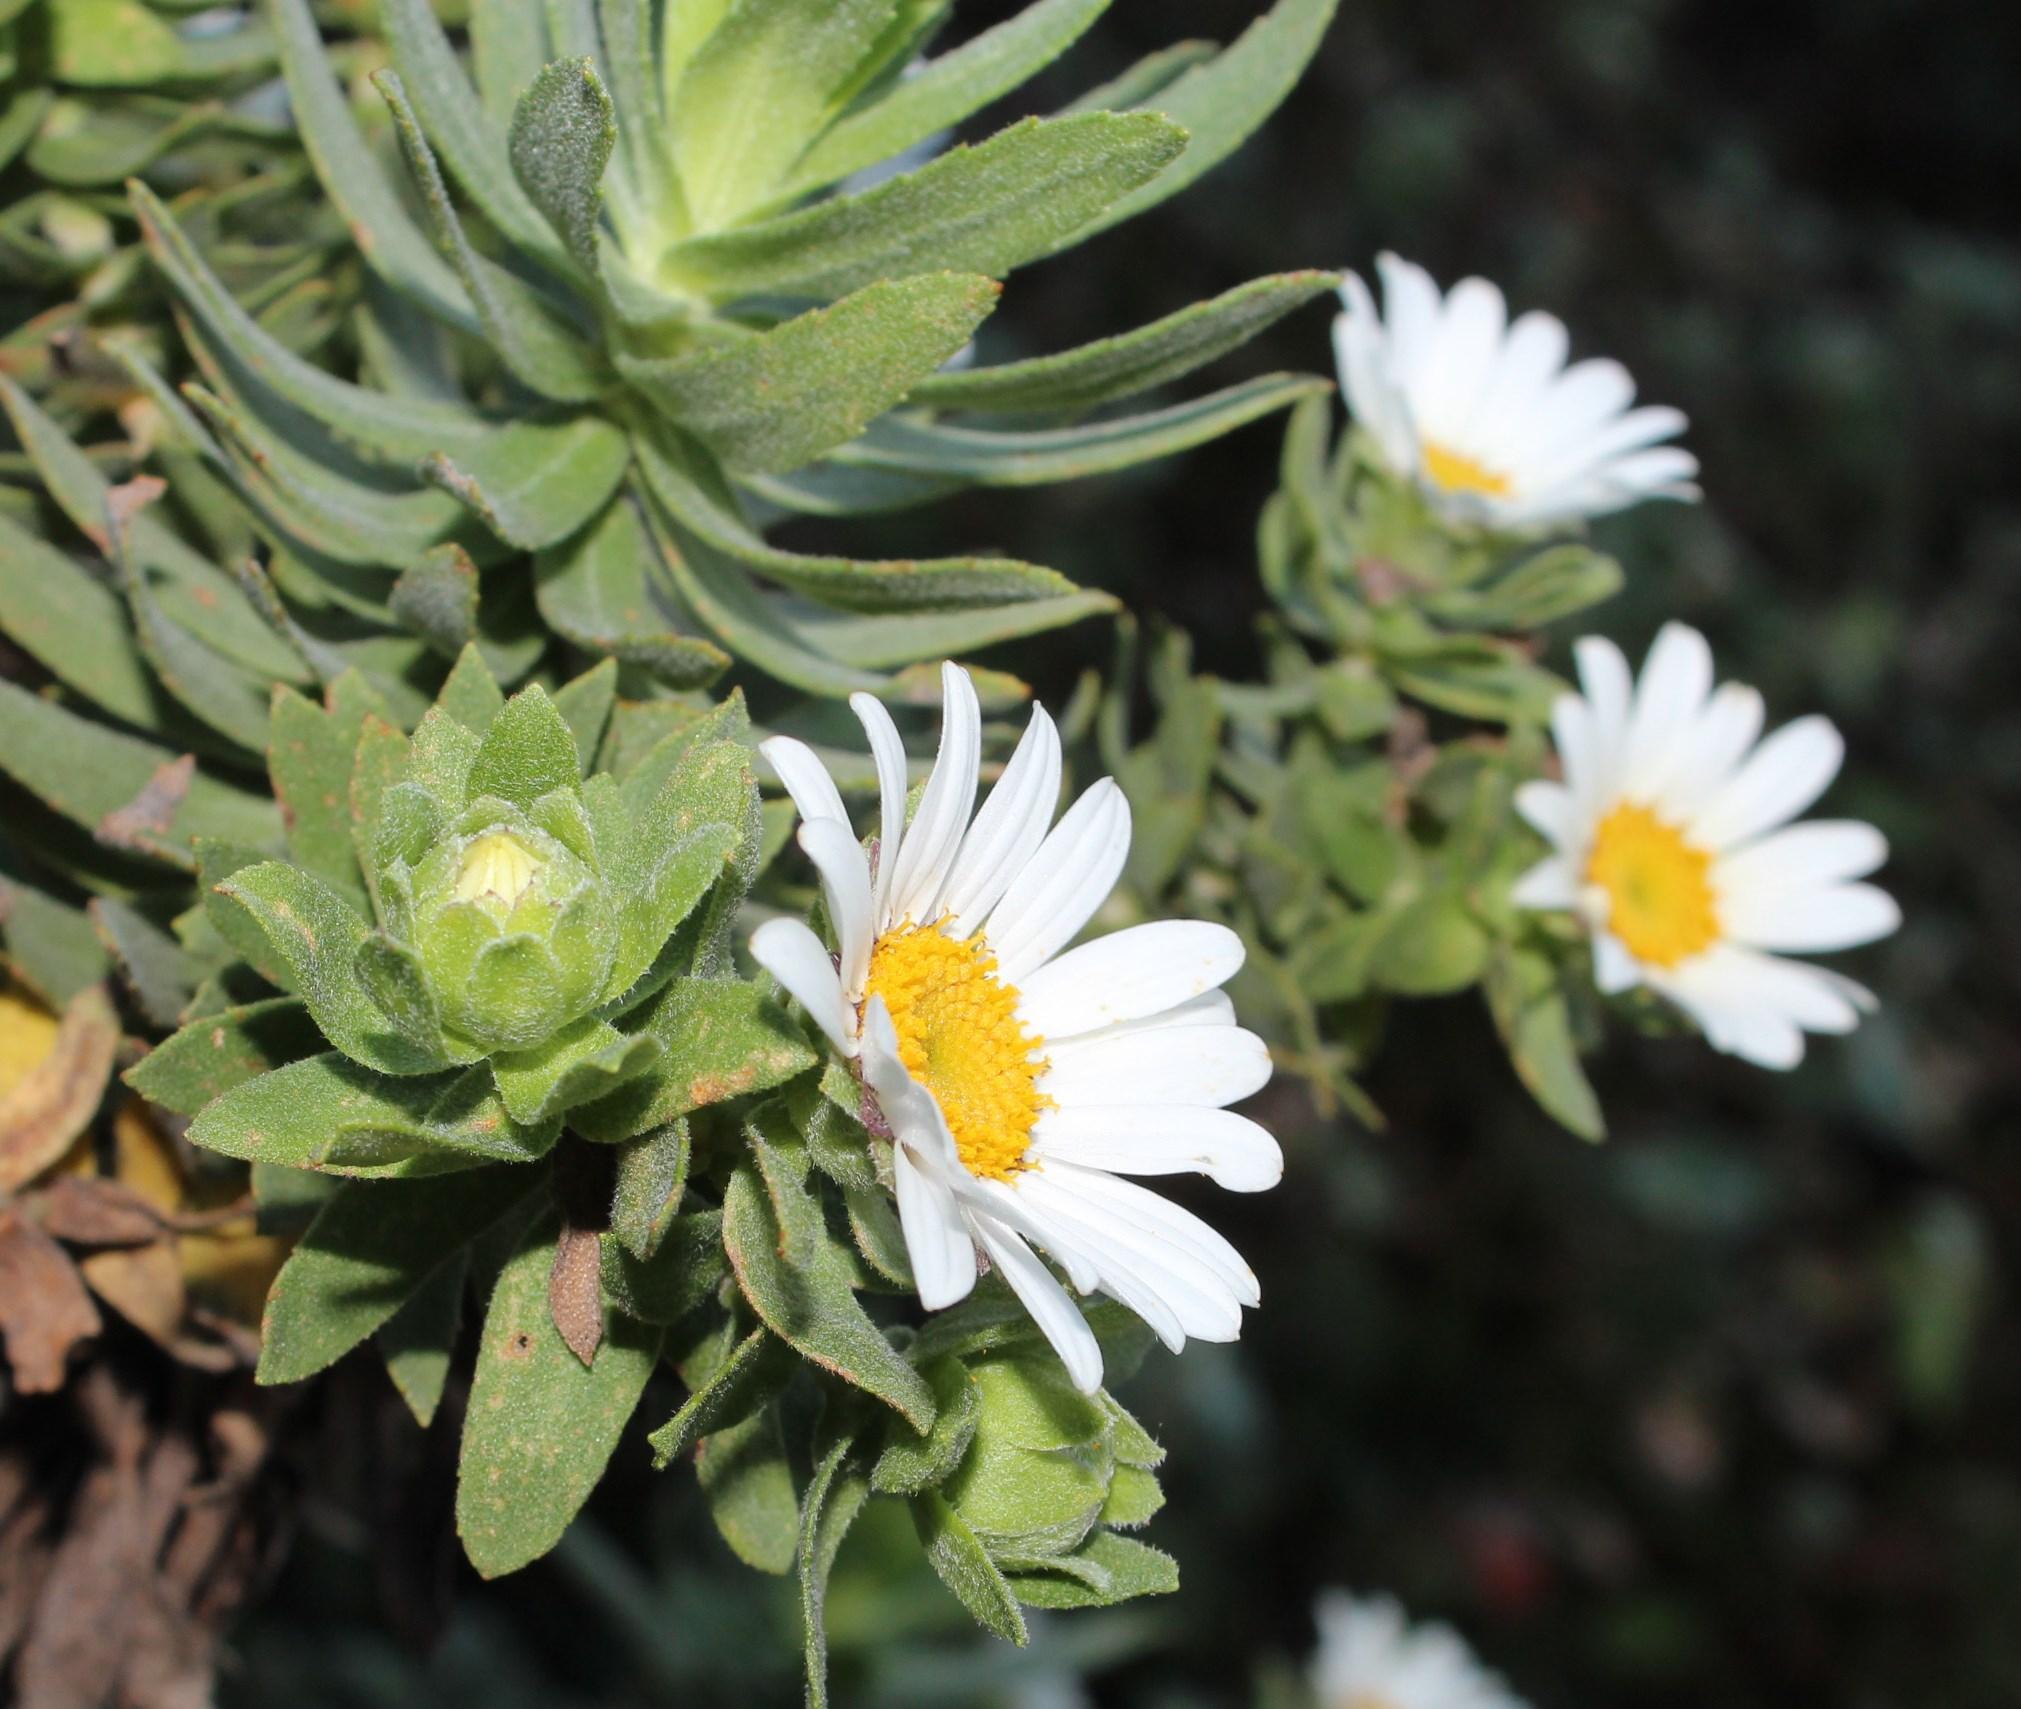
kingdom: Plantae
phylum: Tracheophyta
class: Magnoliopsida
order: Asterales
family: Asteraceae
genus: Osmitopsis
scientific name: Osmitopsis asteriscoides
